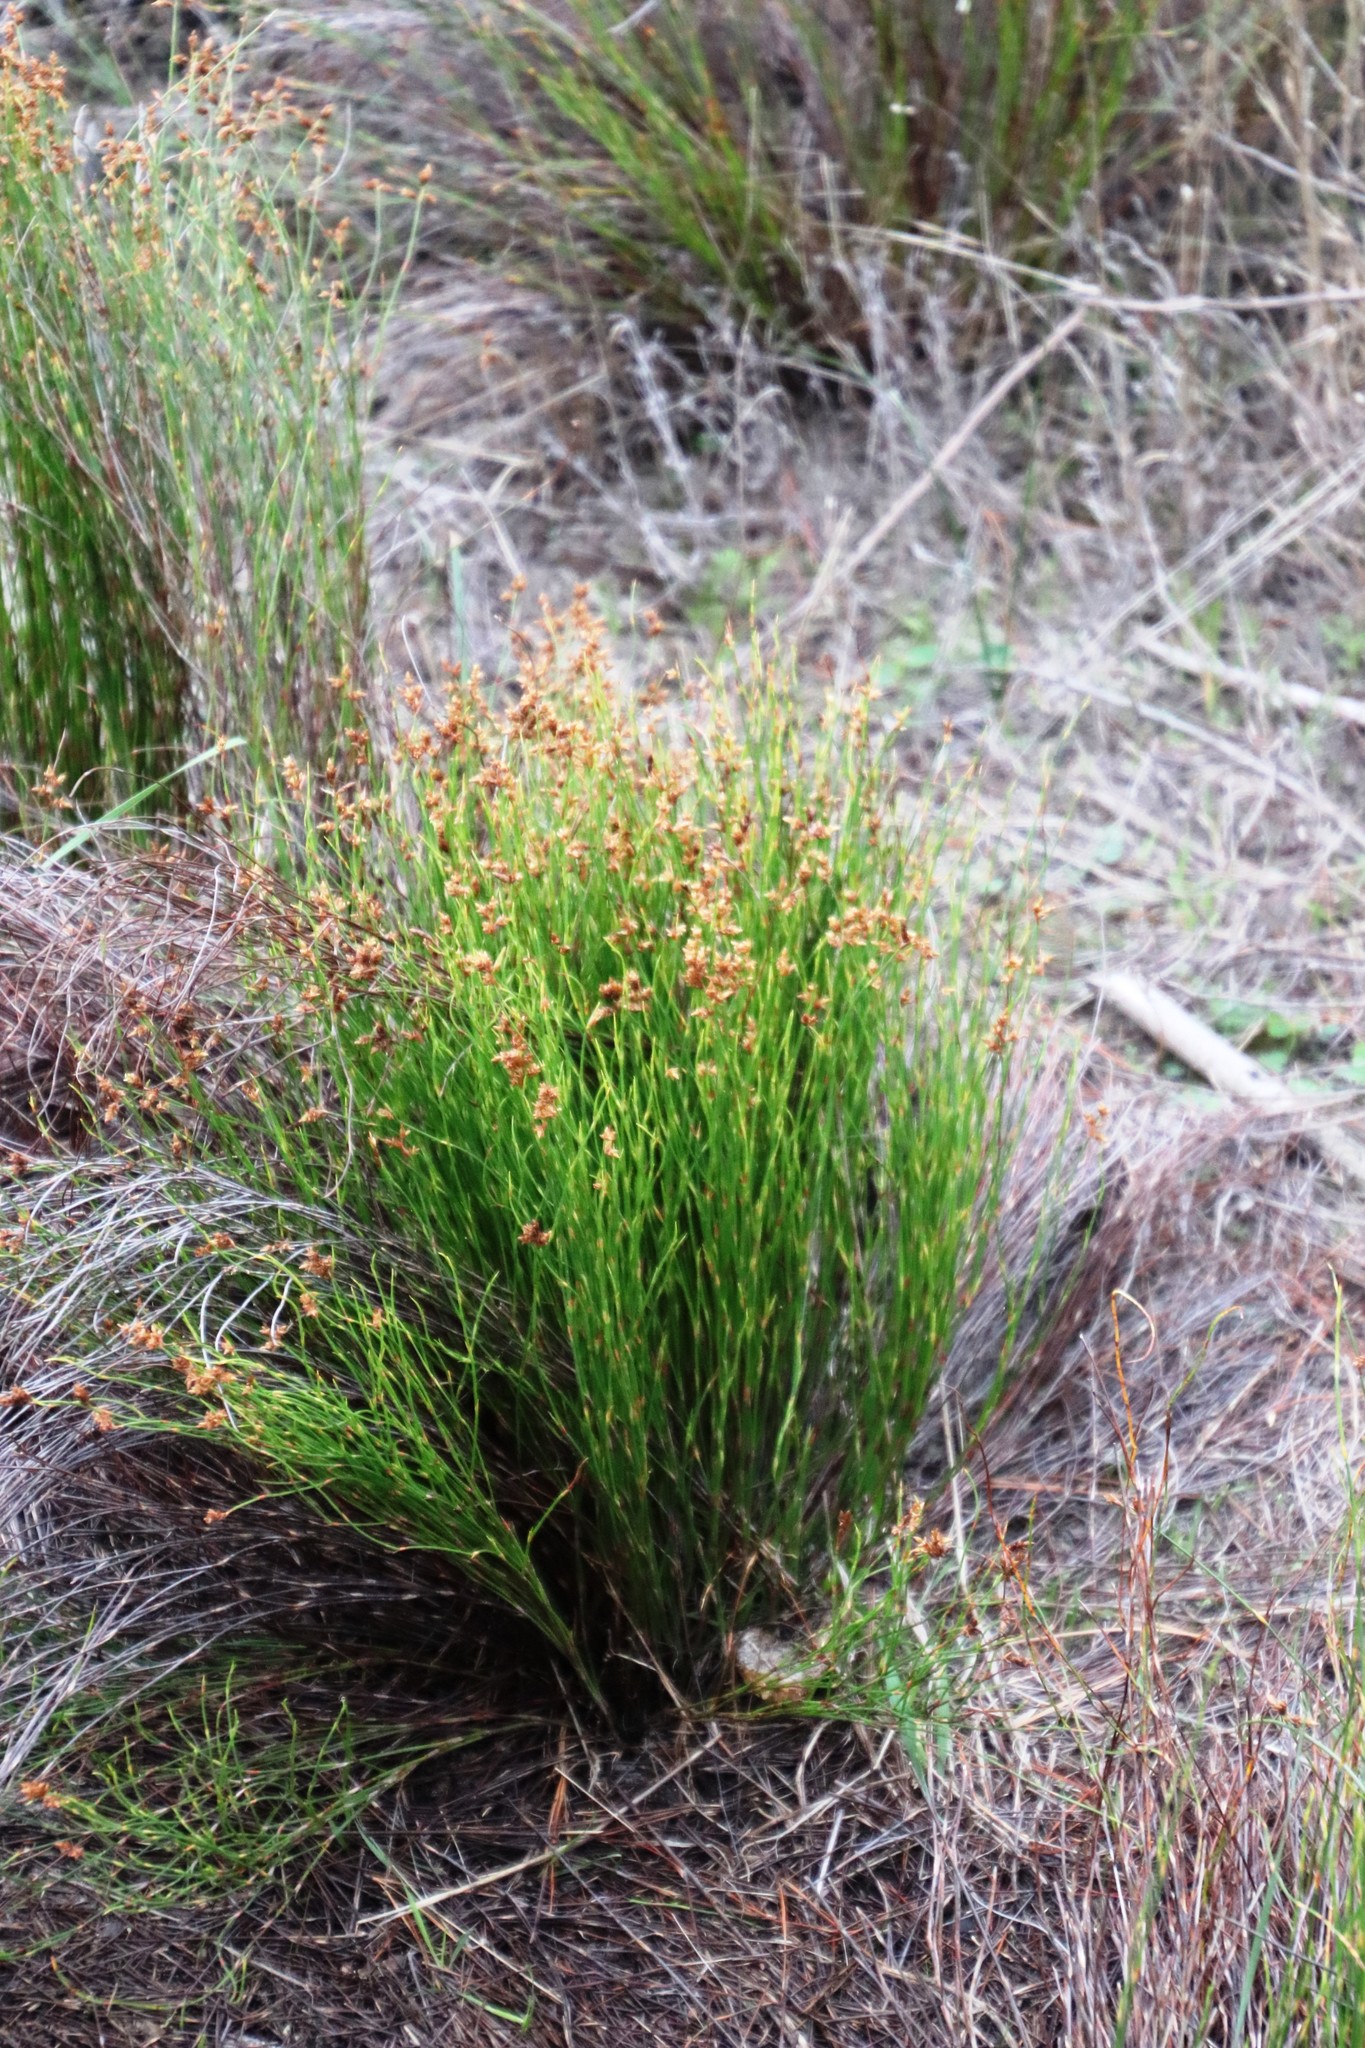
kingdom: Plantae
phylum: Tracheophyta
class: Liliopsida
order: Poales
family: Restionaceae
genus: Mastersiella
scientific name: Mastersiella digitata
